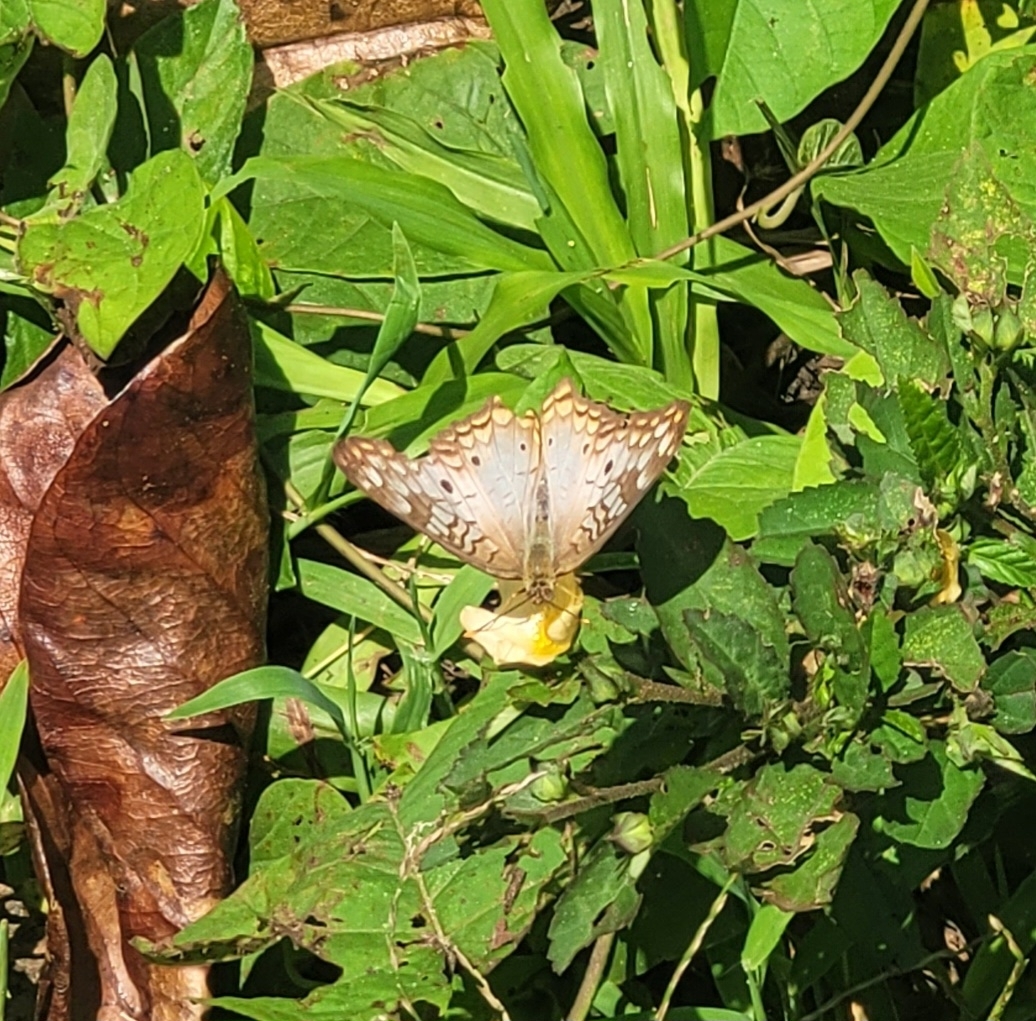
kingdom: Animalia
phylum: Arthropoda
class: Insecta
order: Lepidoptera
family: Nymphalidae
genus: Anartia
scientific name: Anartia jatrophae
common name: White peacock
